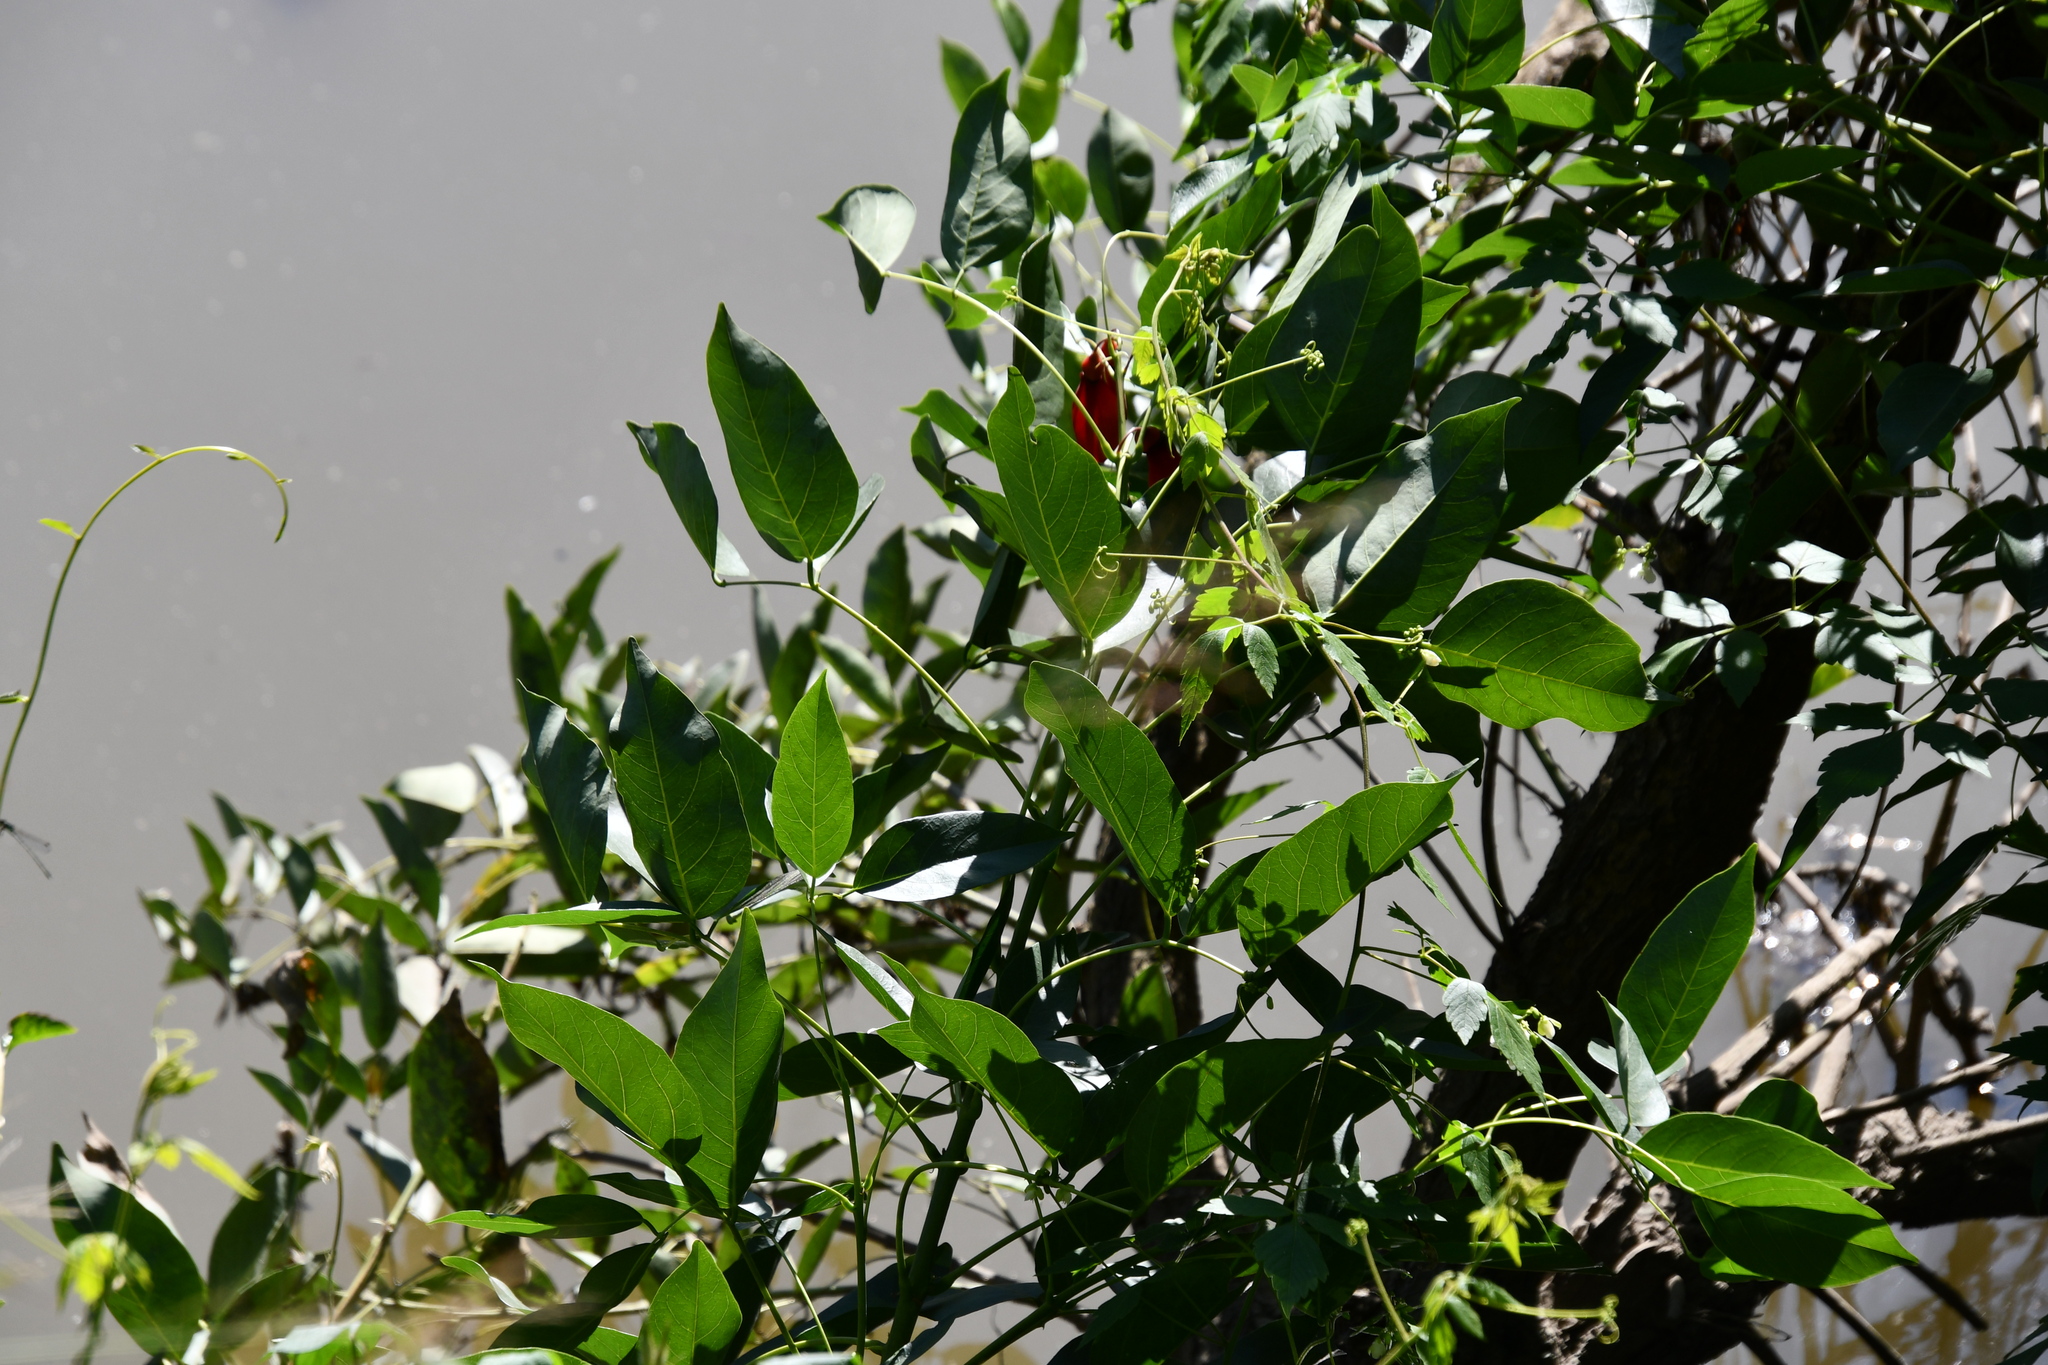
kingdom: Plantae
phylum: Tracheophyta
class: Magnoliopsida
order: Fabales
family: Fabaceae
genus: Erythrina
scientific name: Erythrina crista-galli
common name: Cockspur coral tree
